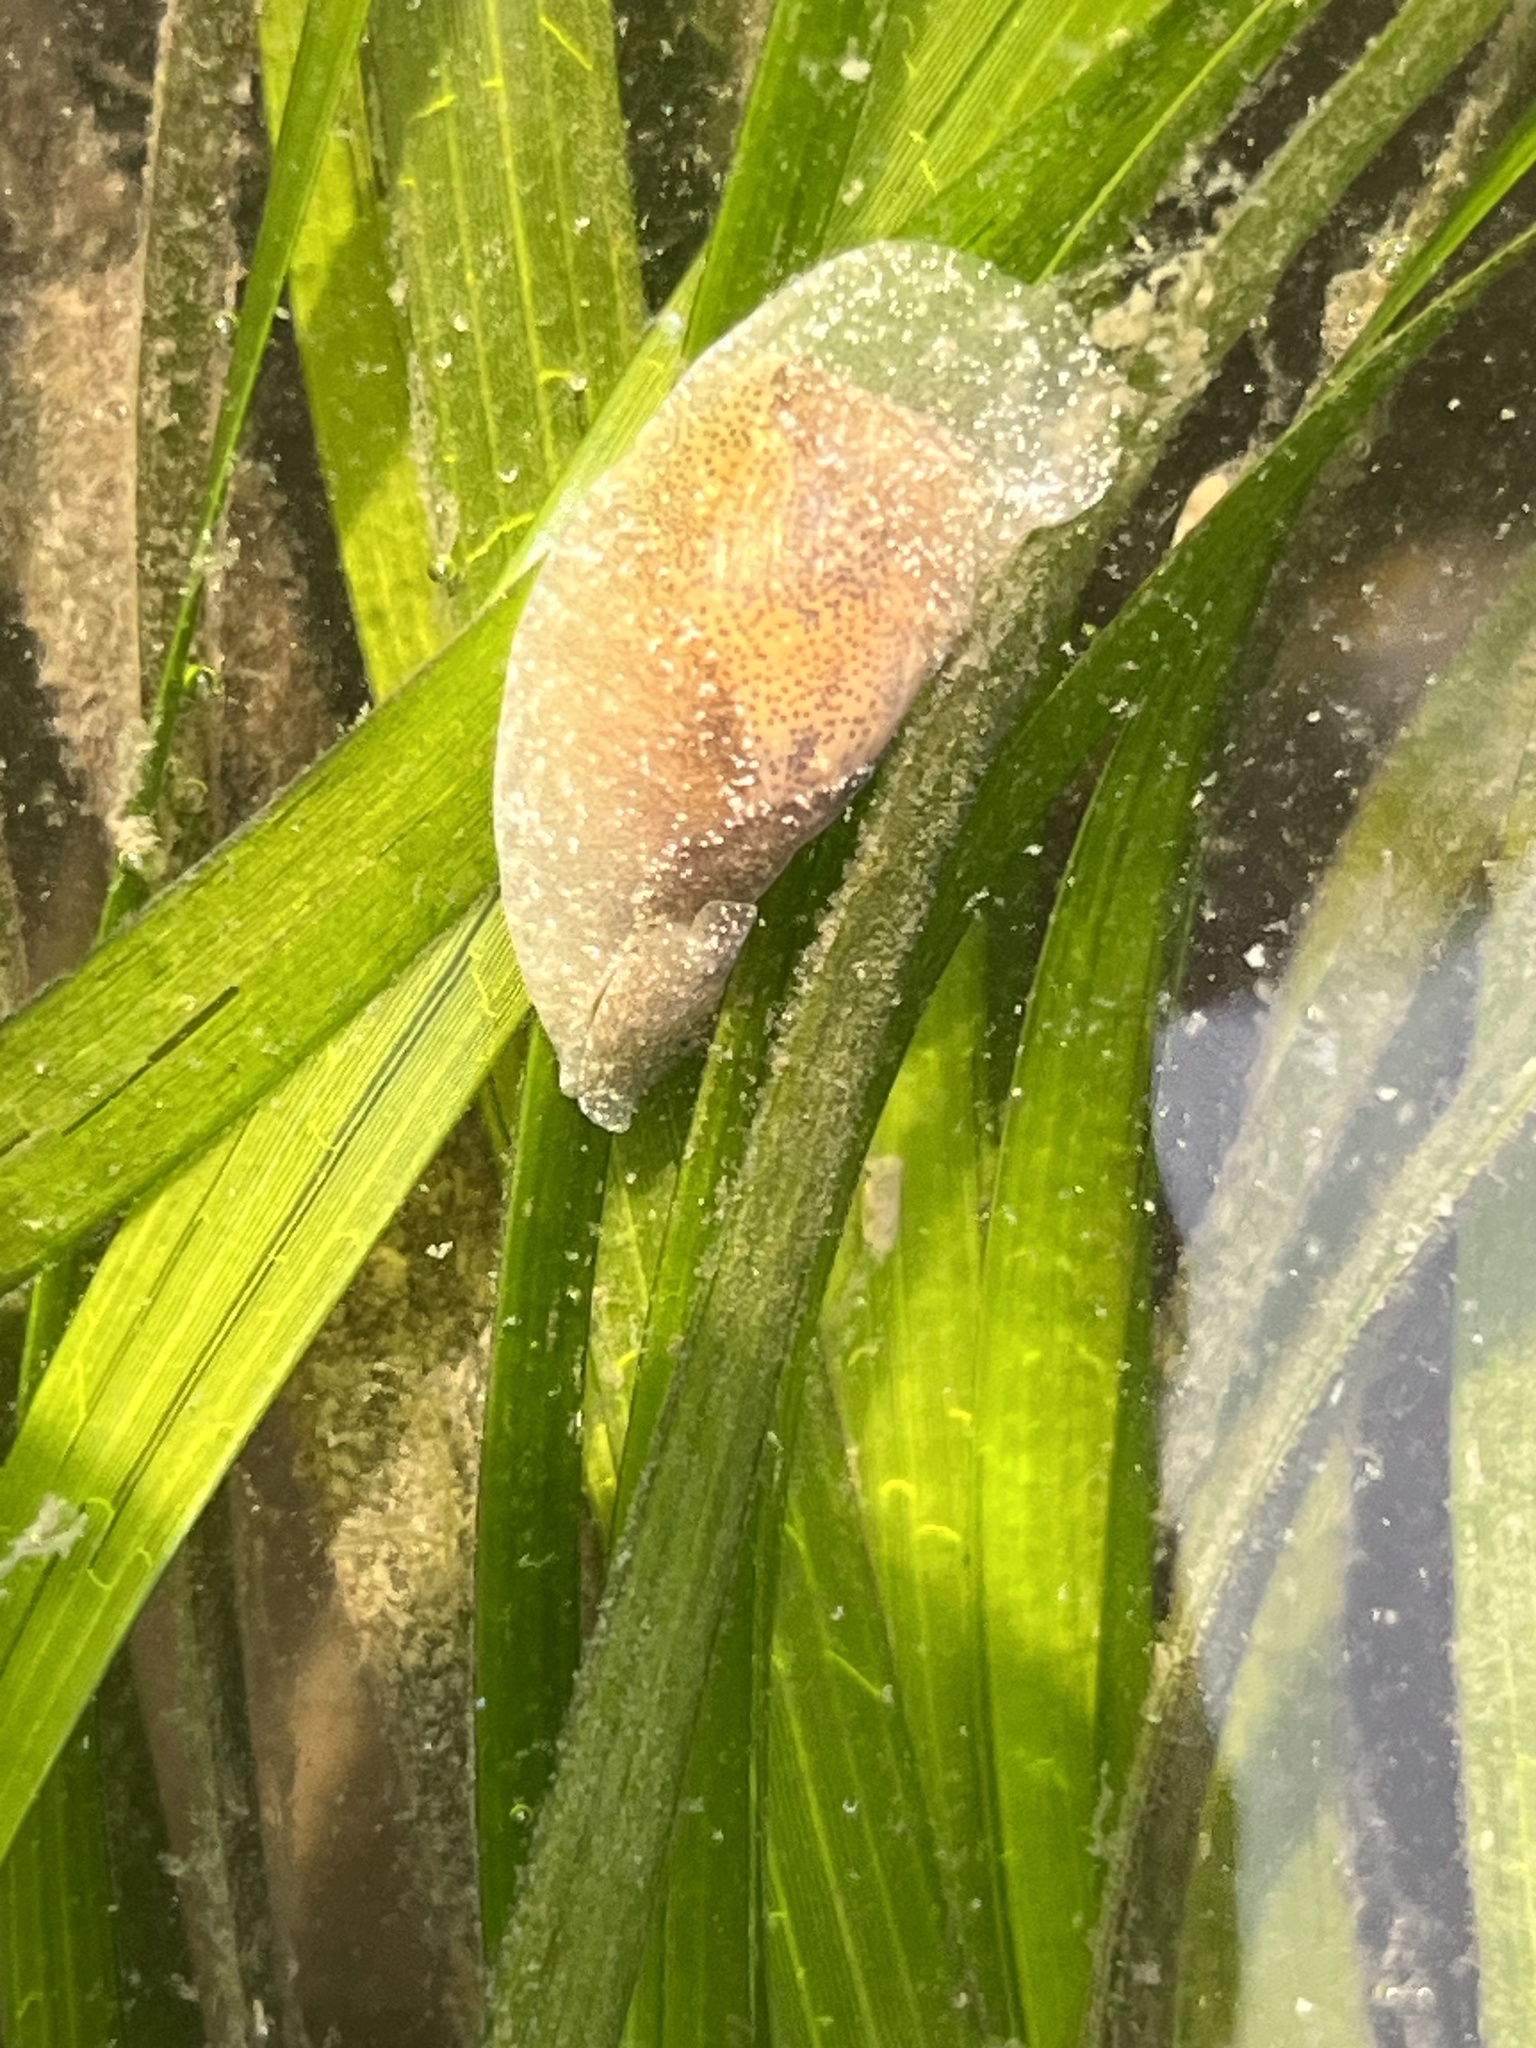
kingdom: Animalia
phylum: Mollusca
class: Gastropoda
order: Cephalaspidea
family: Haminoeidae
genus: Haminoea
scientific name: Haminoea vesicula
